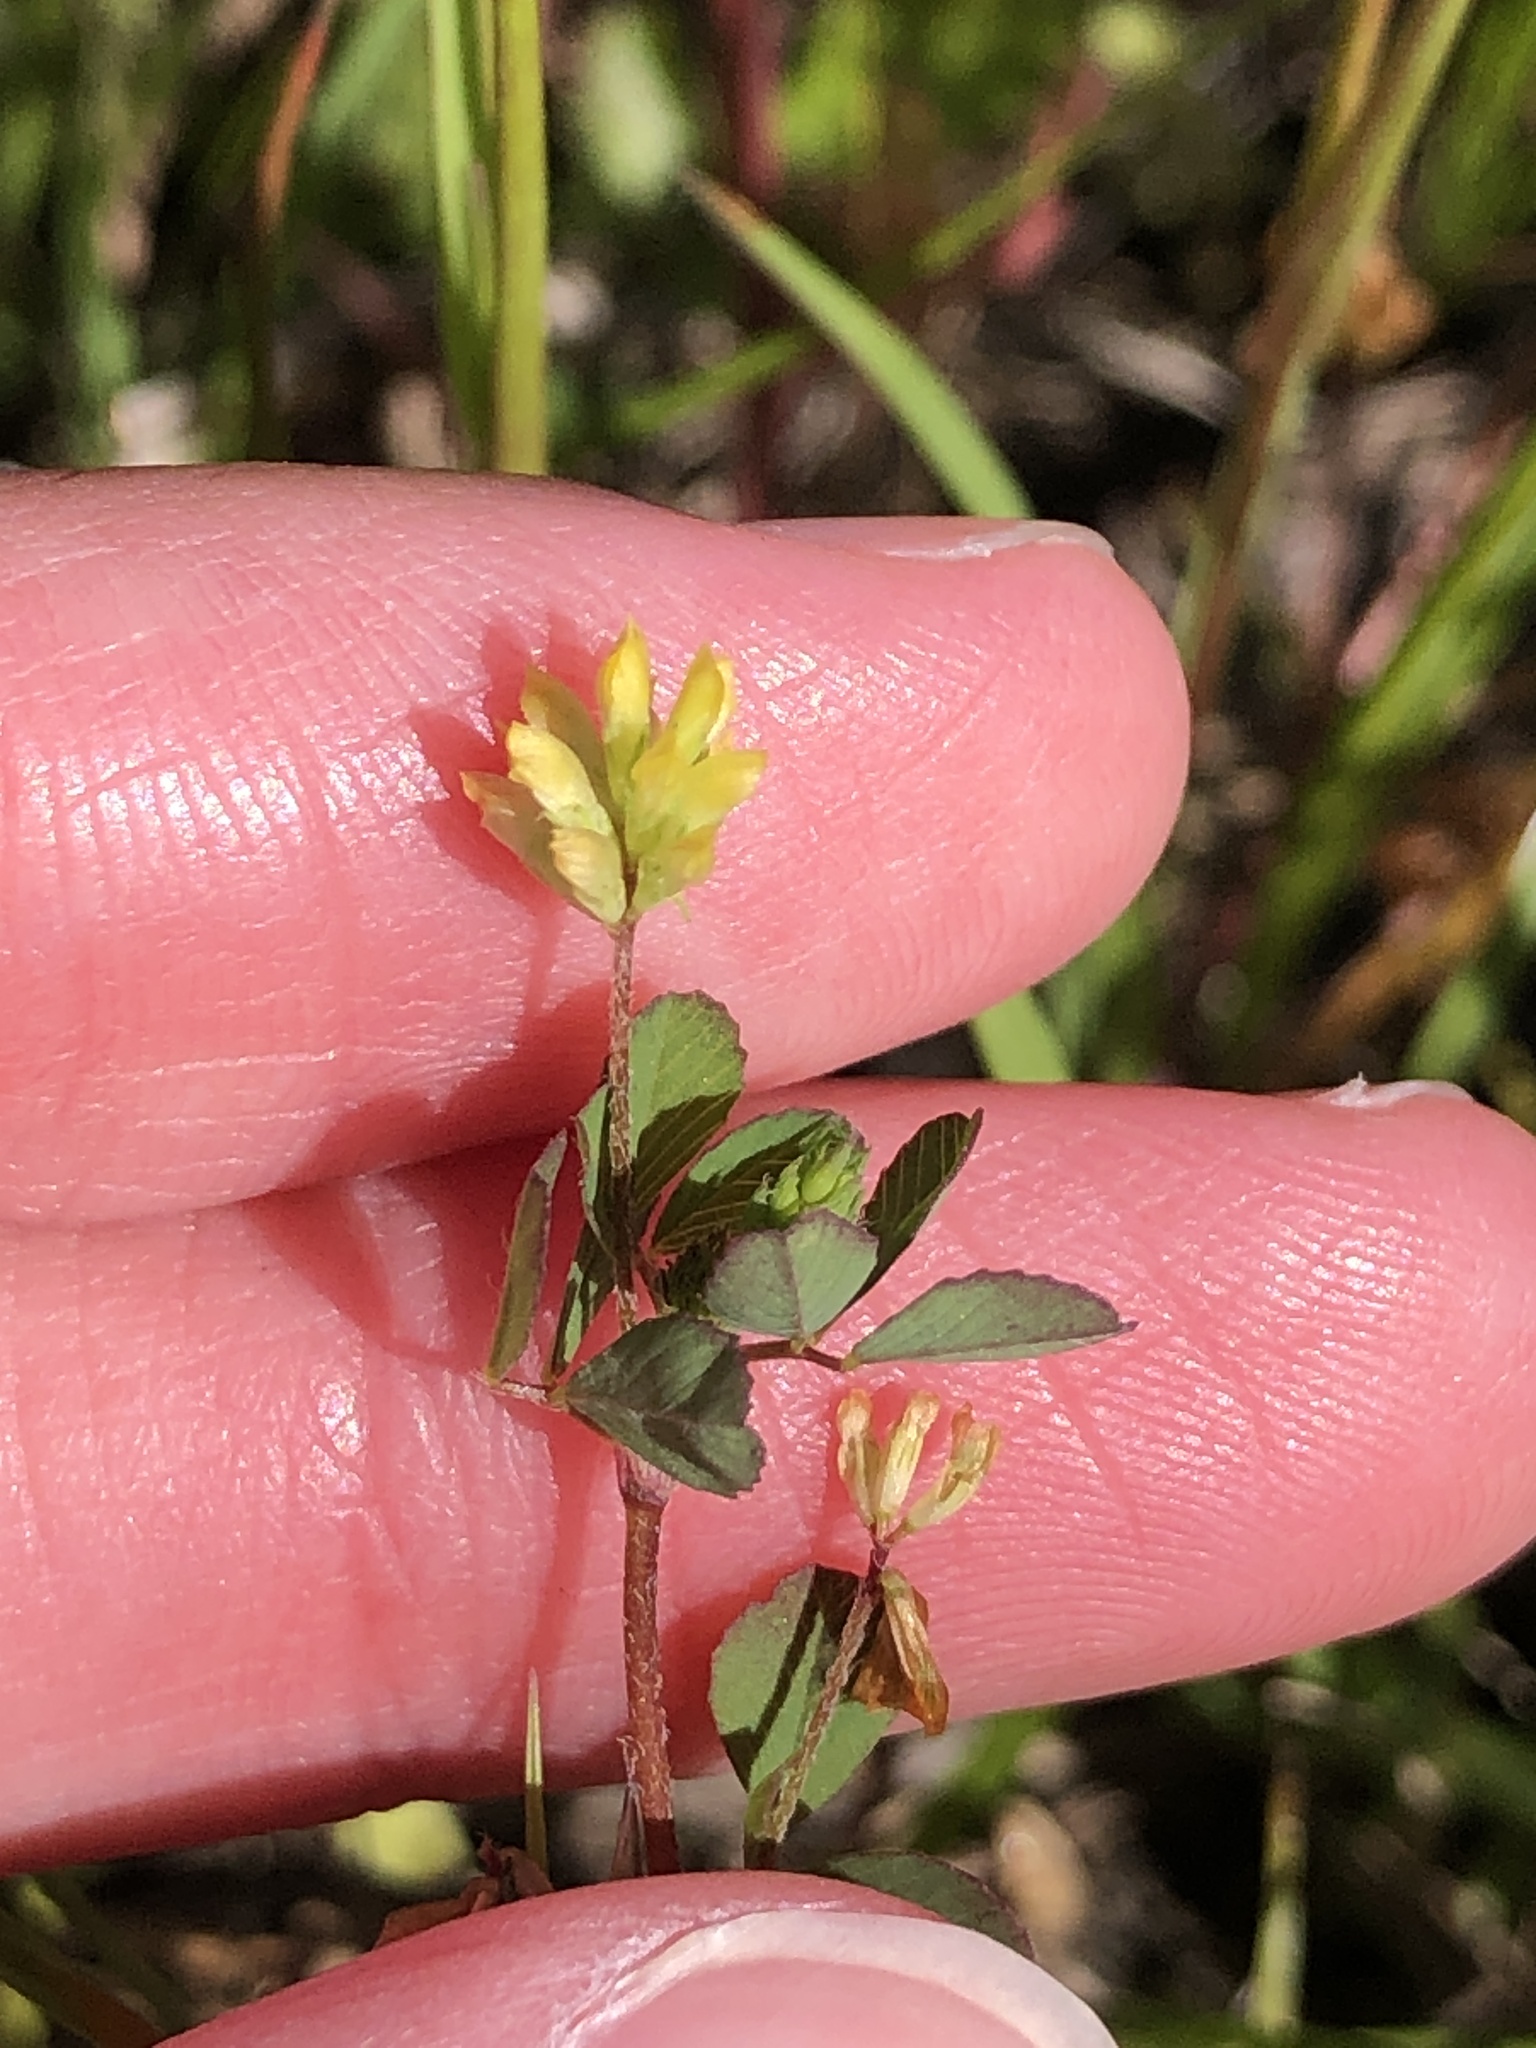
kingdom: Plantae
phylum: Tracheophyta
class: Magnoliopsida
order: Fabales
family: Fabaceae
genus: Trifolium
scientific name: Trifolium dubium
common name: Suckling clover
